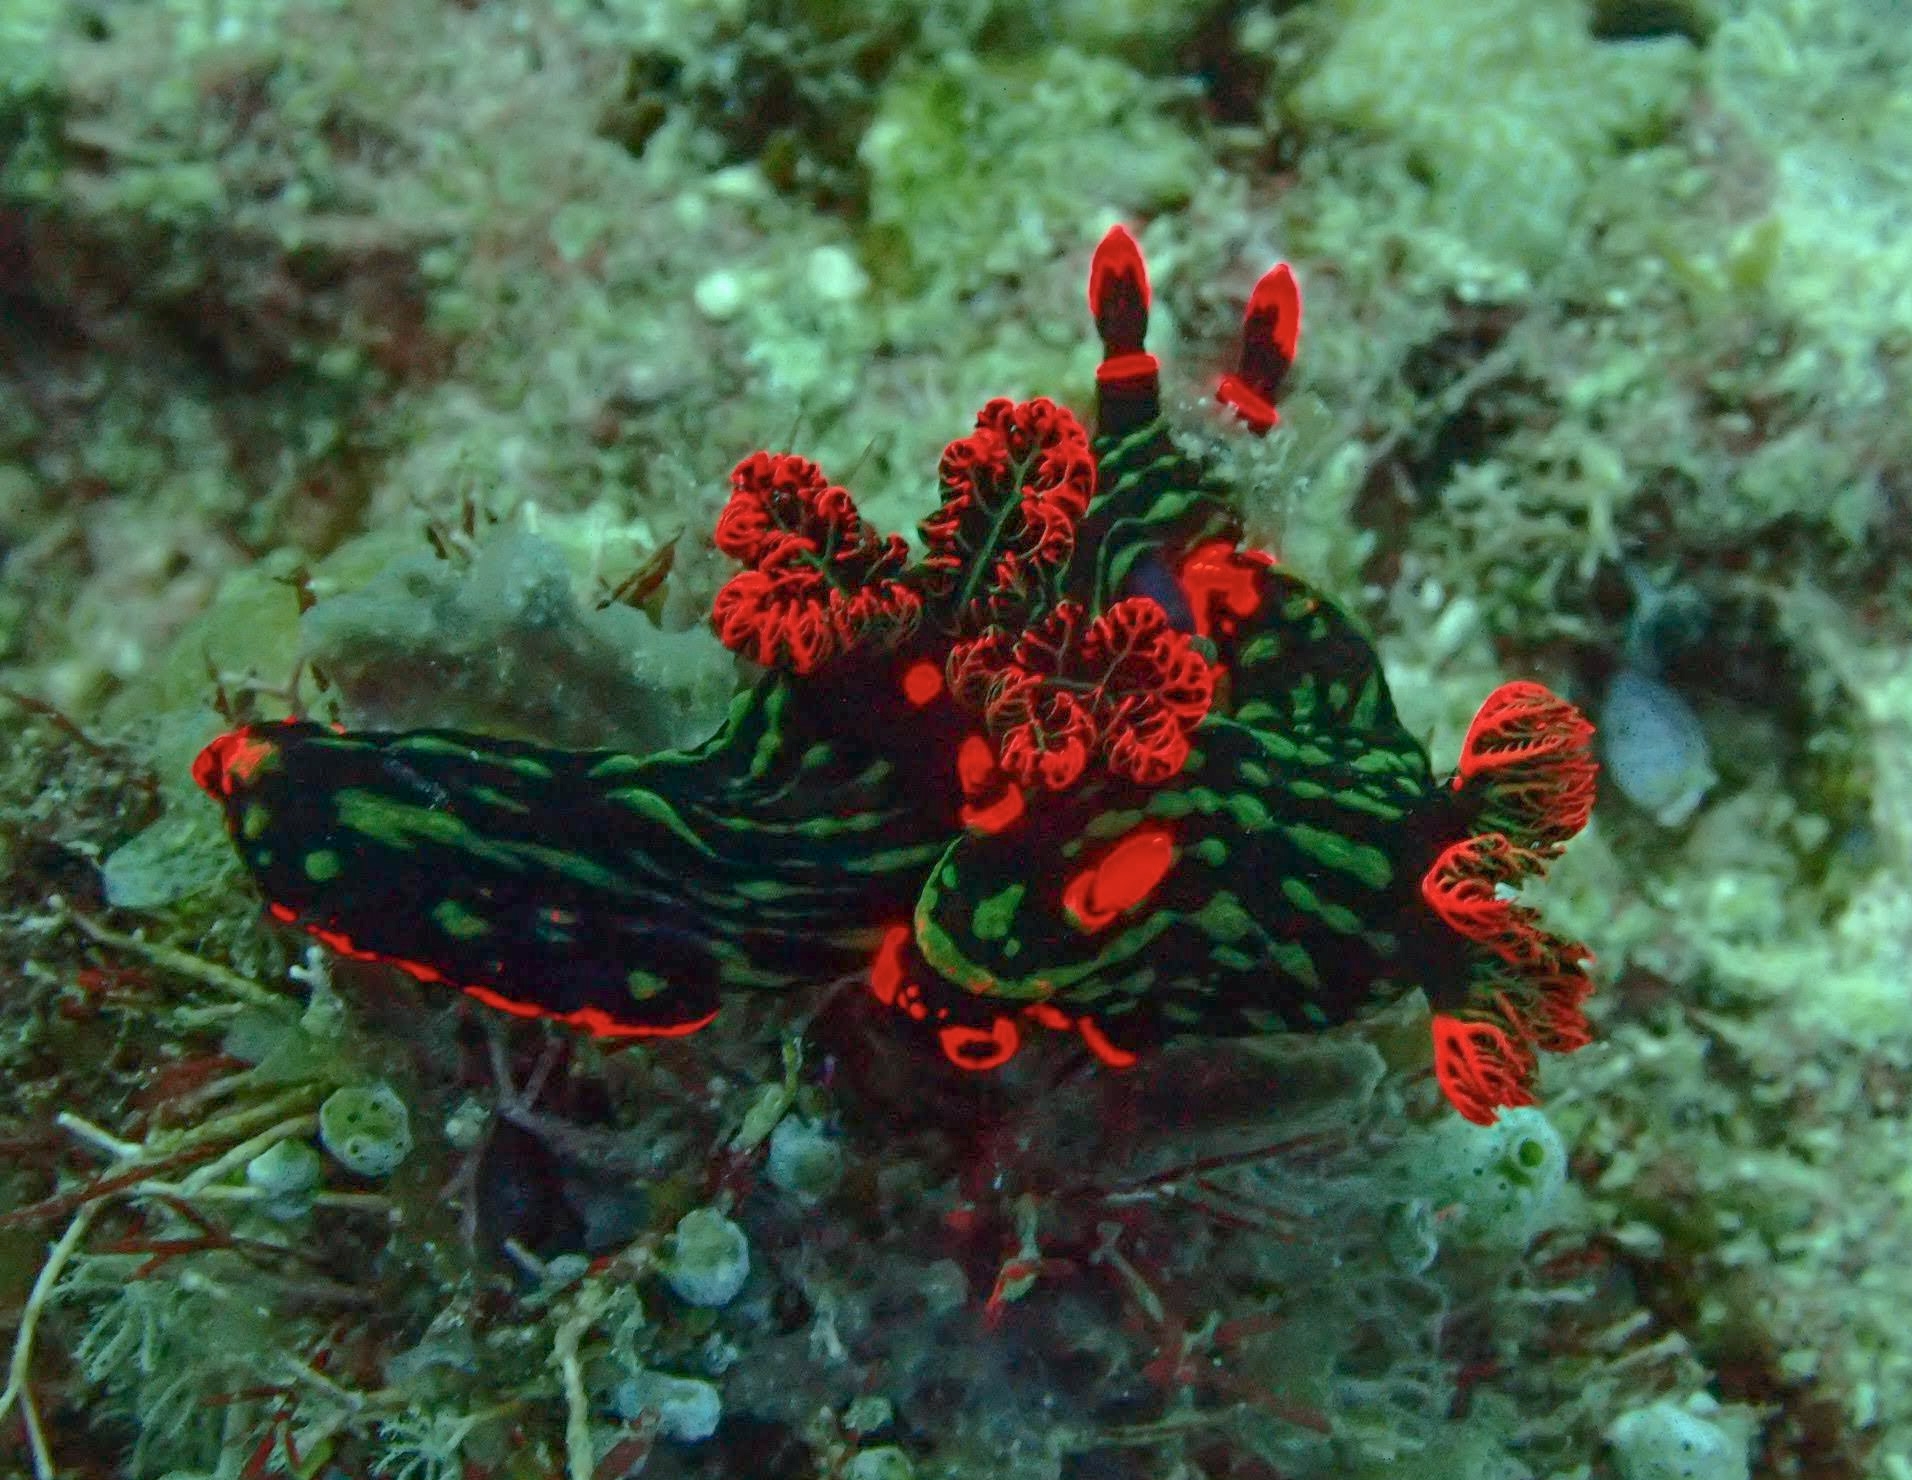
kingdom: Animalia
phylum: Mollusca
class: Gastropoda
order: Nudibranchia
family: Polyceridae
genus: Nembrotha
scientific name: Nembrotha kubaryana
